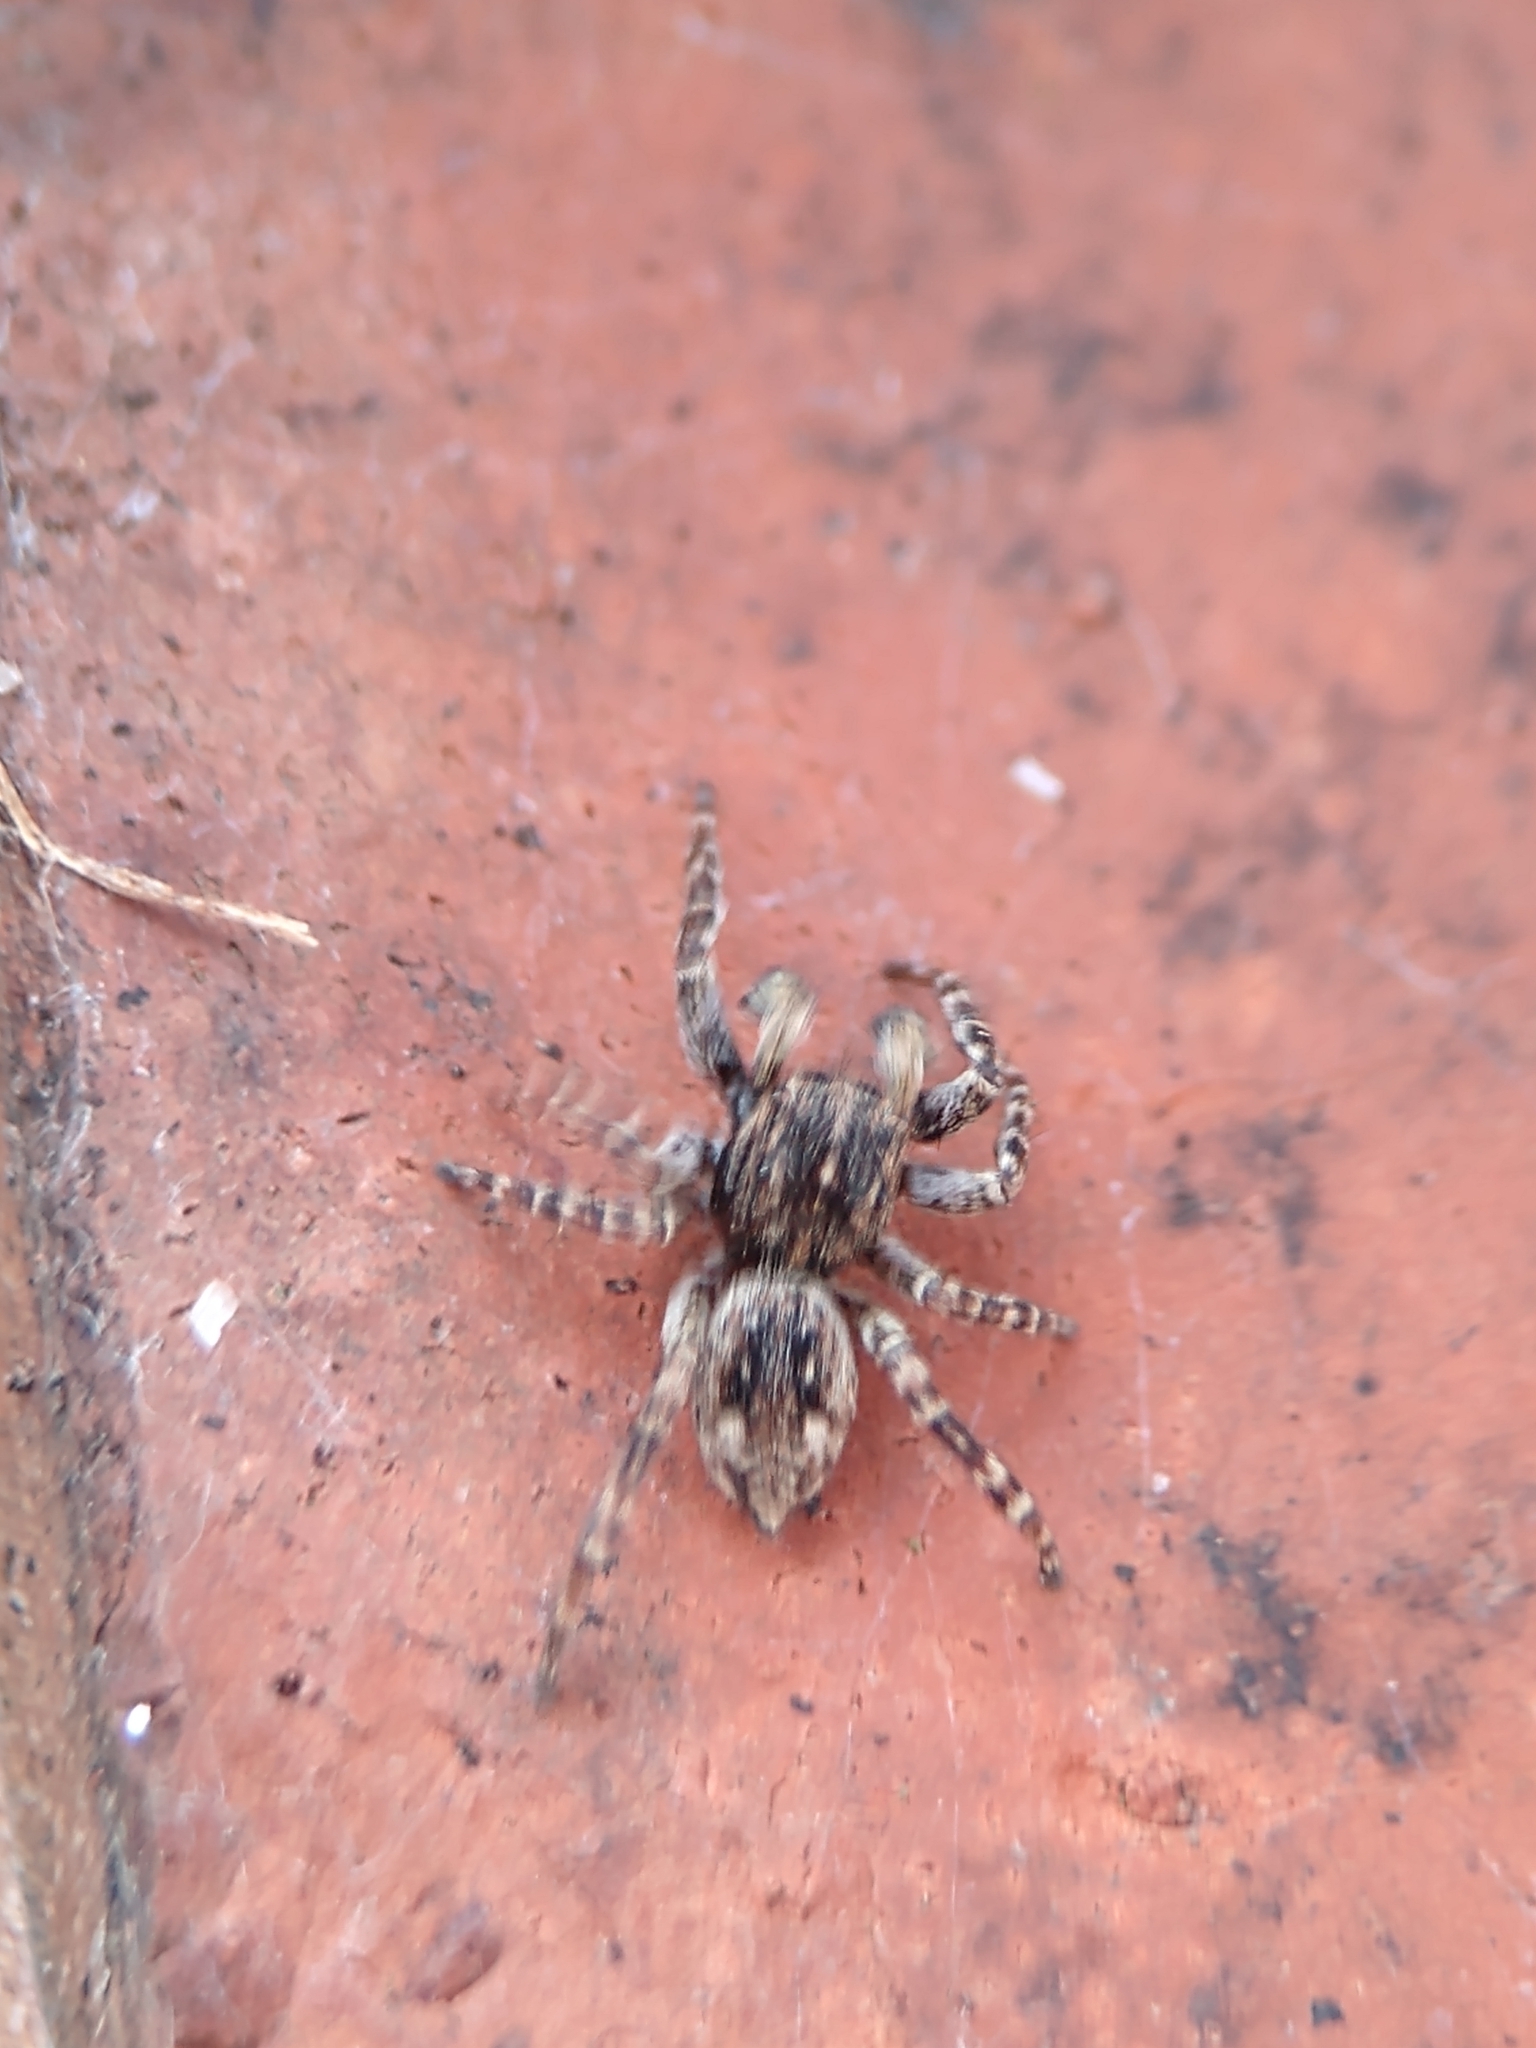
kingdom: Animalia
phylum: Arthropoda
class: Arachnida
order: Araneae
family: Salticidae
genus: Attulus
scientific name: Attulus pubescens
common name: Jumping spider
